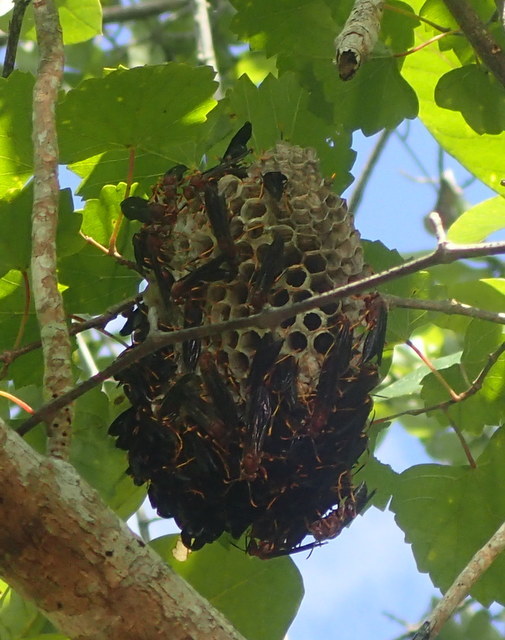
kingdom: Animalia
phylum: Arthropoda
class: Insecta
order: Hymenoptera
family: Eumenidae
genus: Polistes
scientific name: Polistes annularis
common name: Ringed paper wasp
